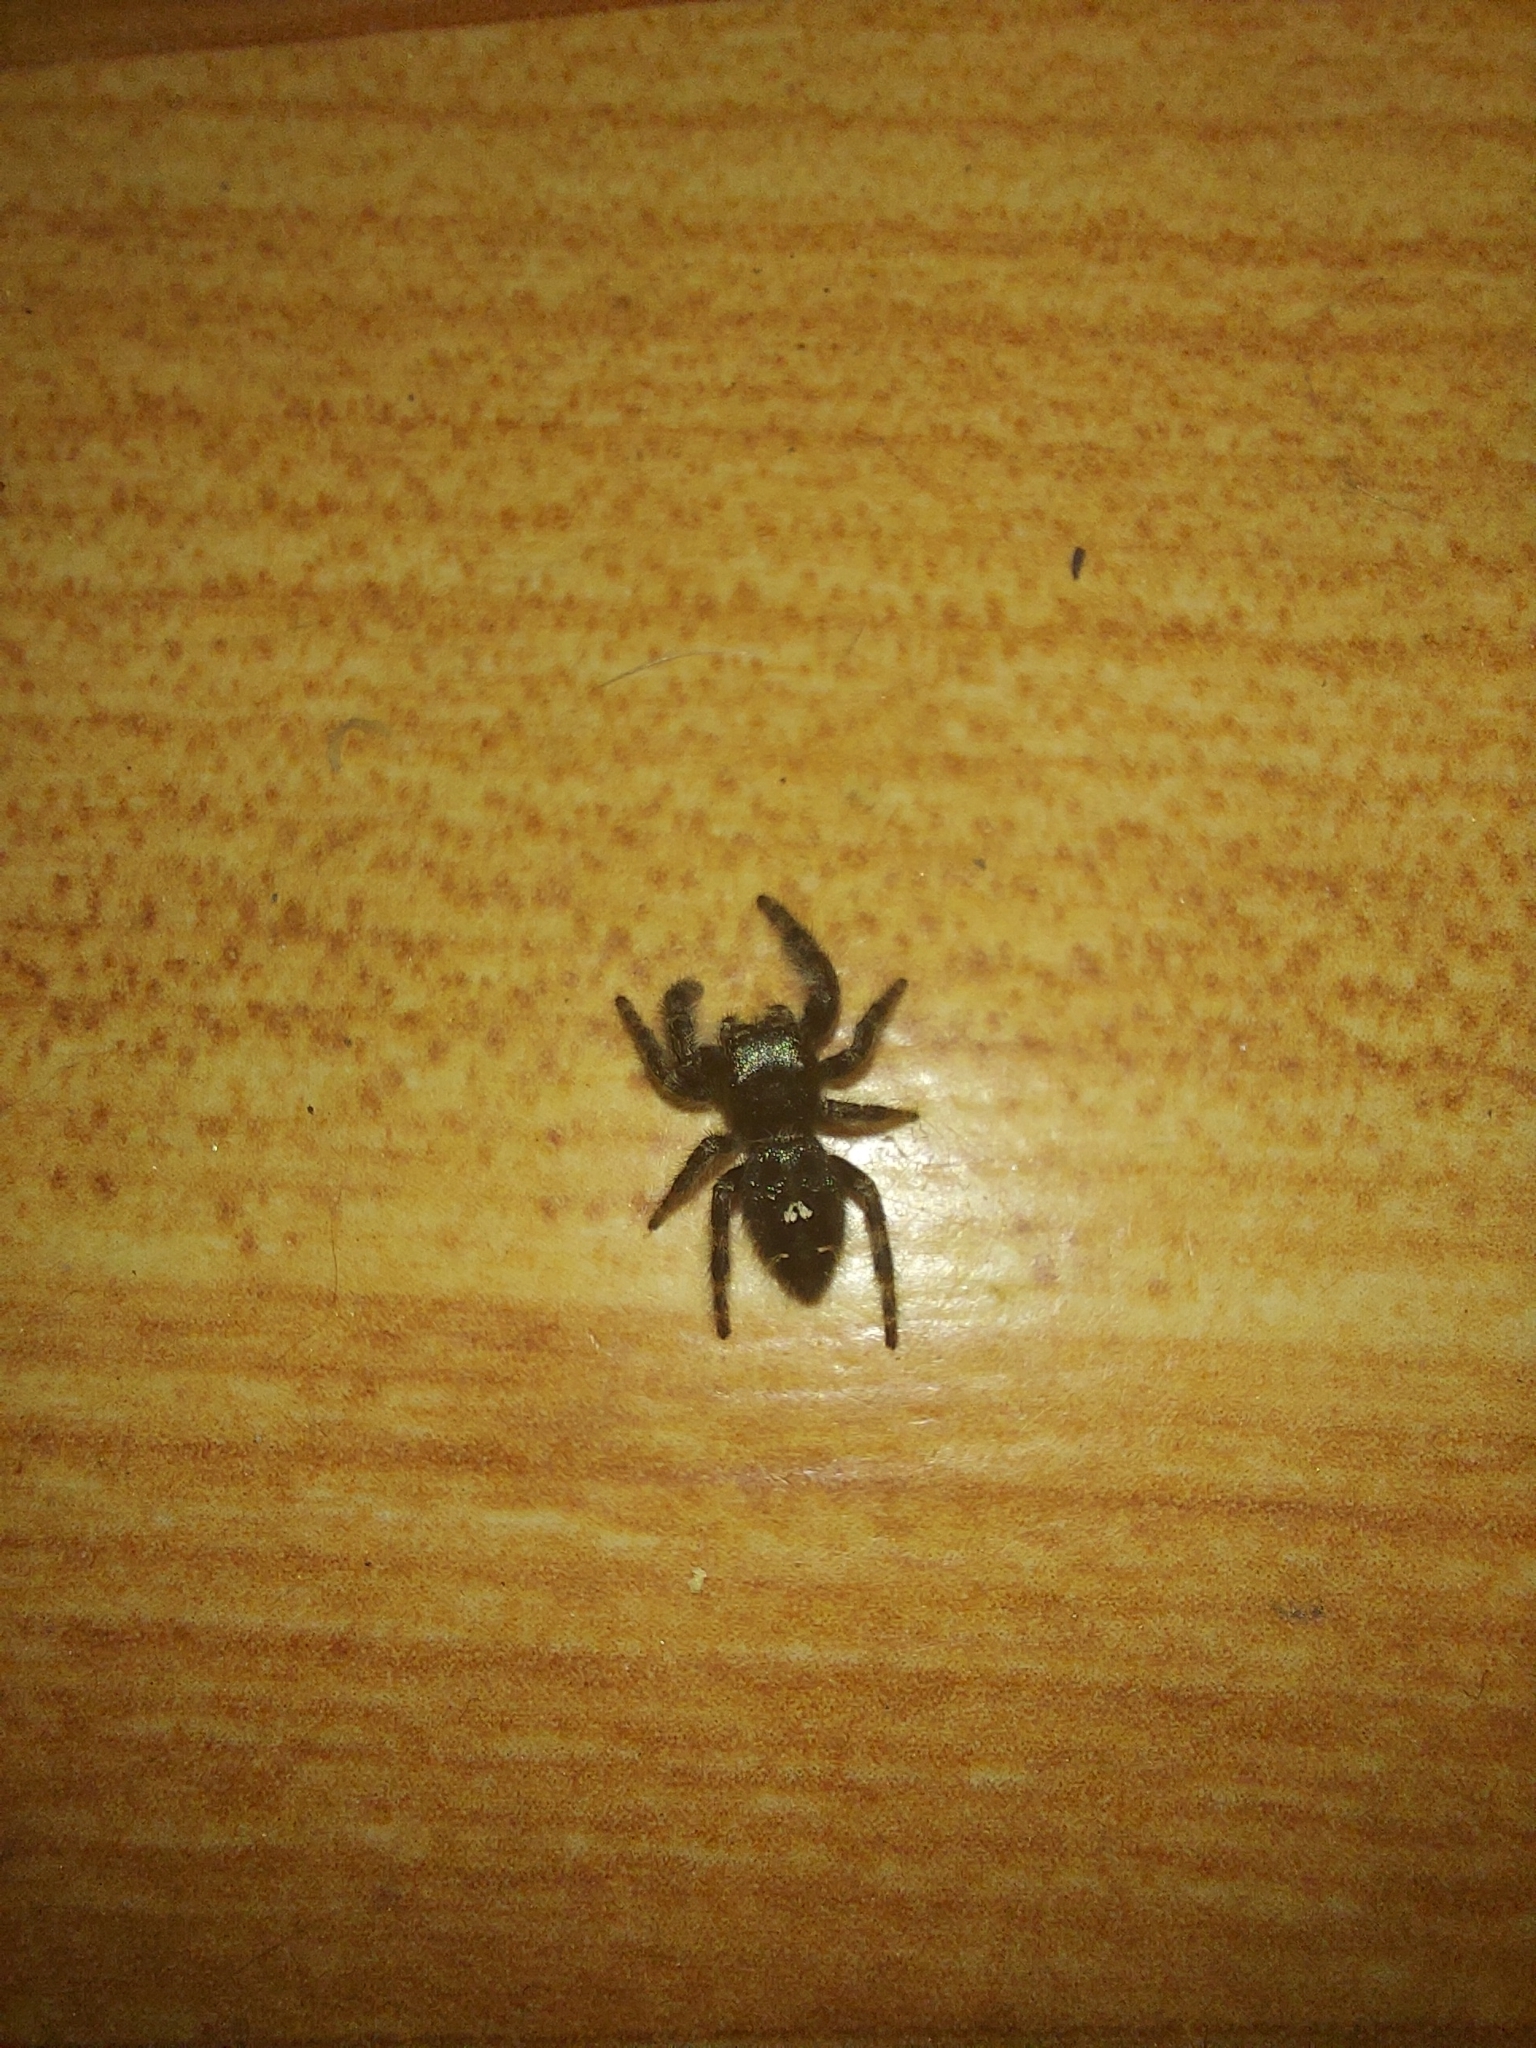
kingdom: Animalia
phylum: Arthropoda
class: Arachnida
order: Araneae
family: Salticidae
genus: Phidippus
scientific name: Phidippus audax
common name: Bold jumper
